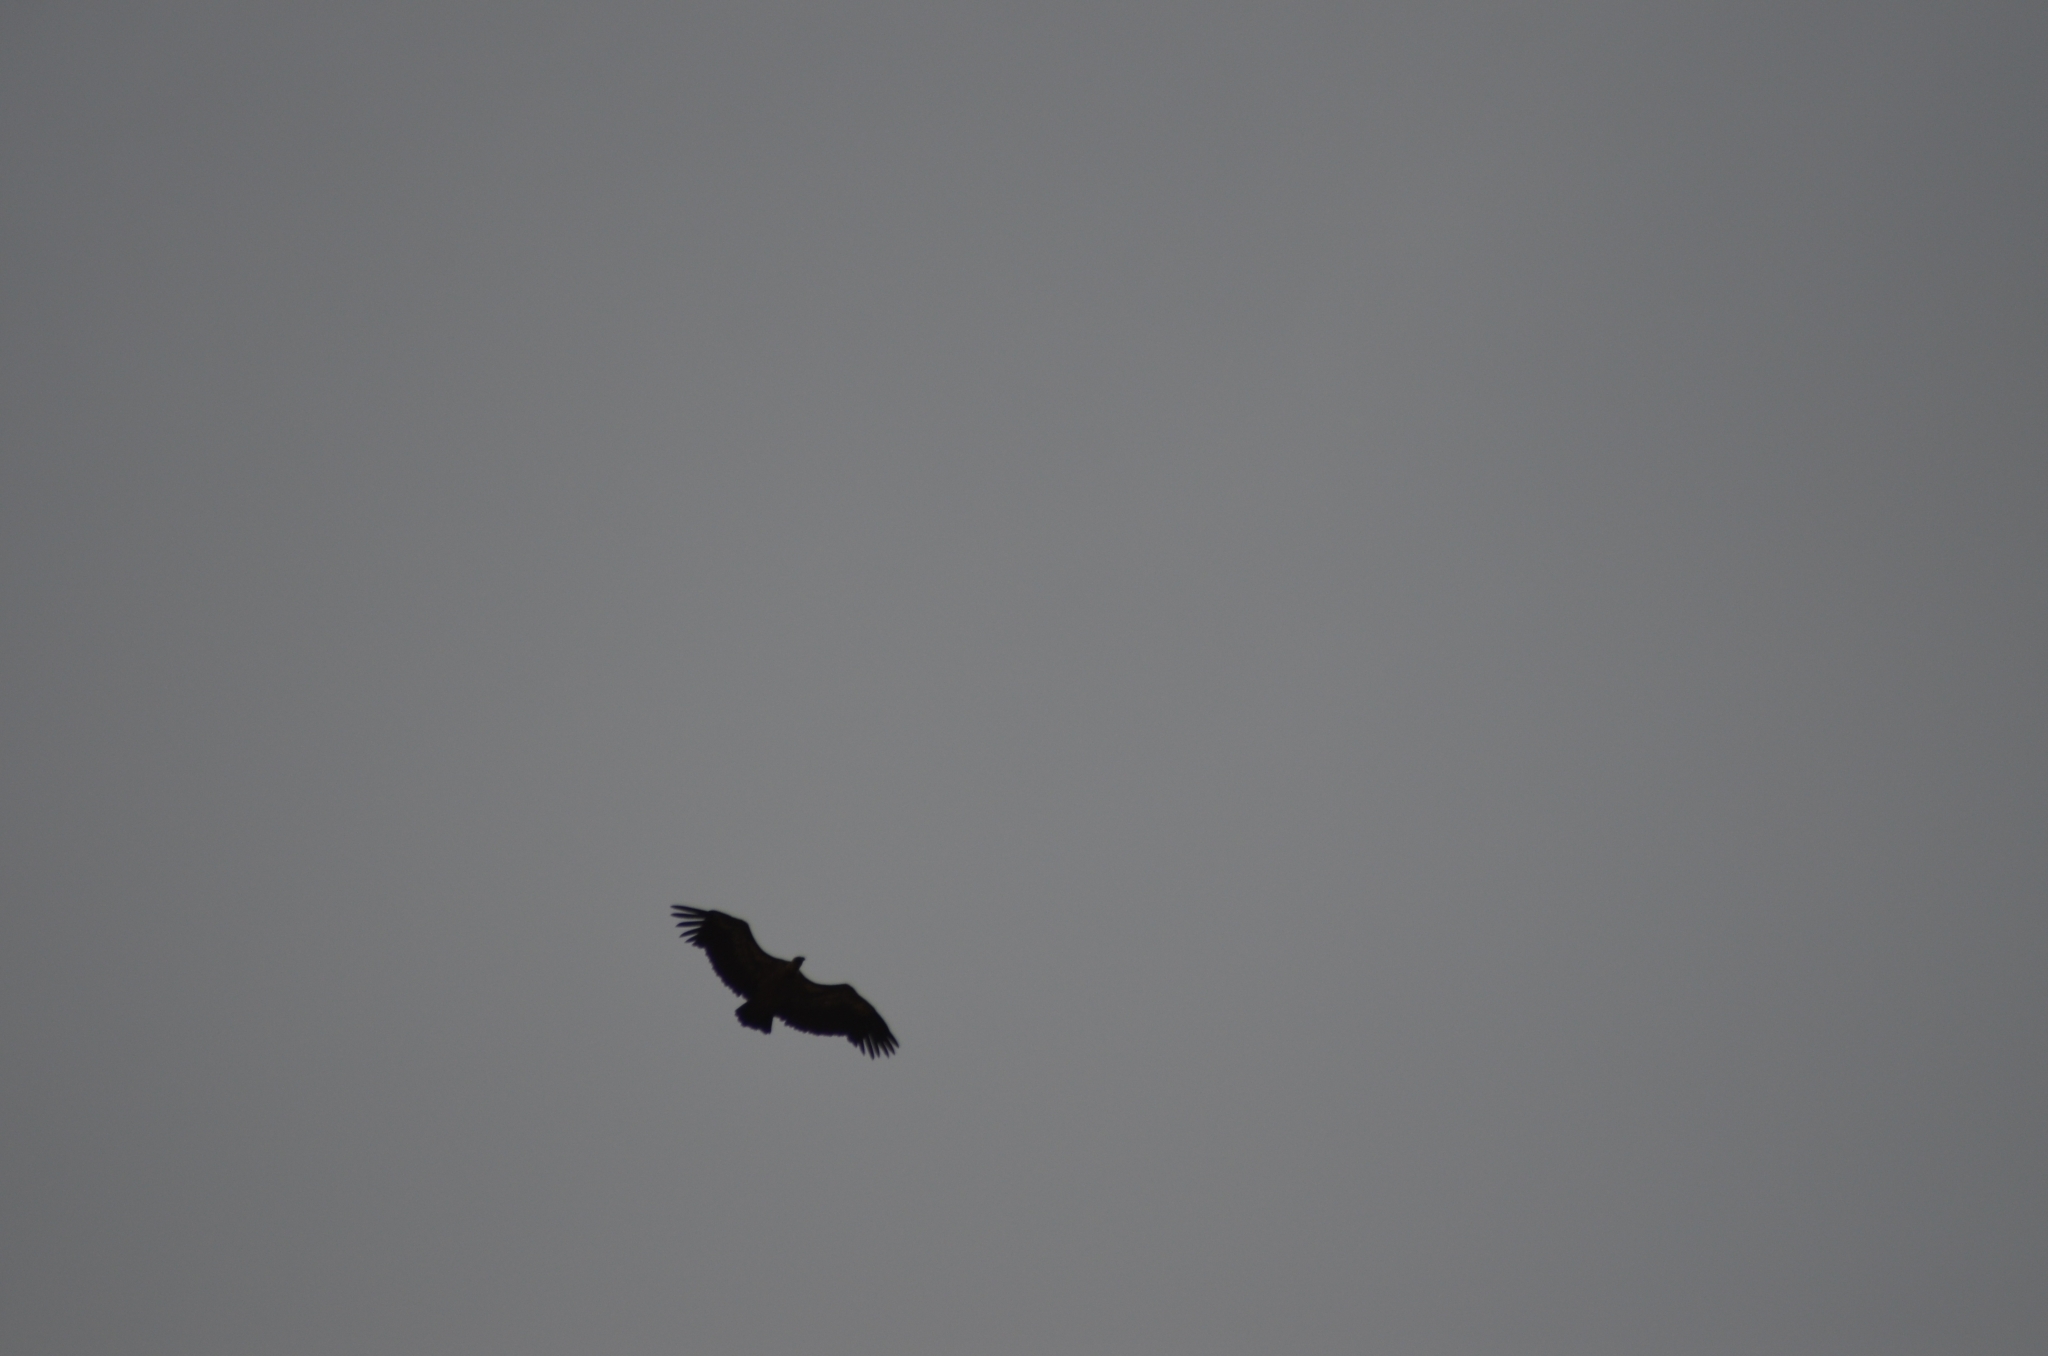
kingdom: Animalia
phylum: Chordata
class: Aves
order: Accipitriformes
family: Accipitridae
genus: Gyps
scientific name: Gyps fulvus
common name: Griffon vulture
